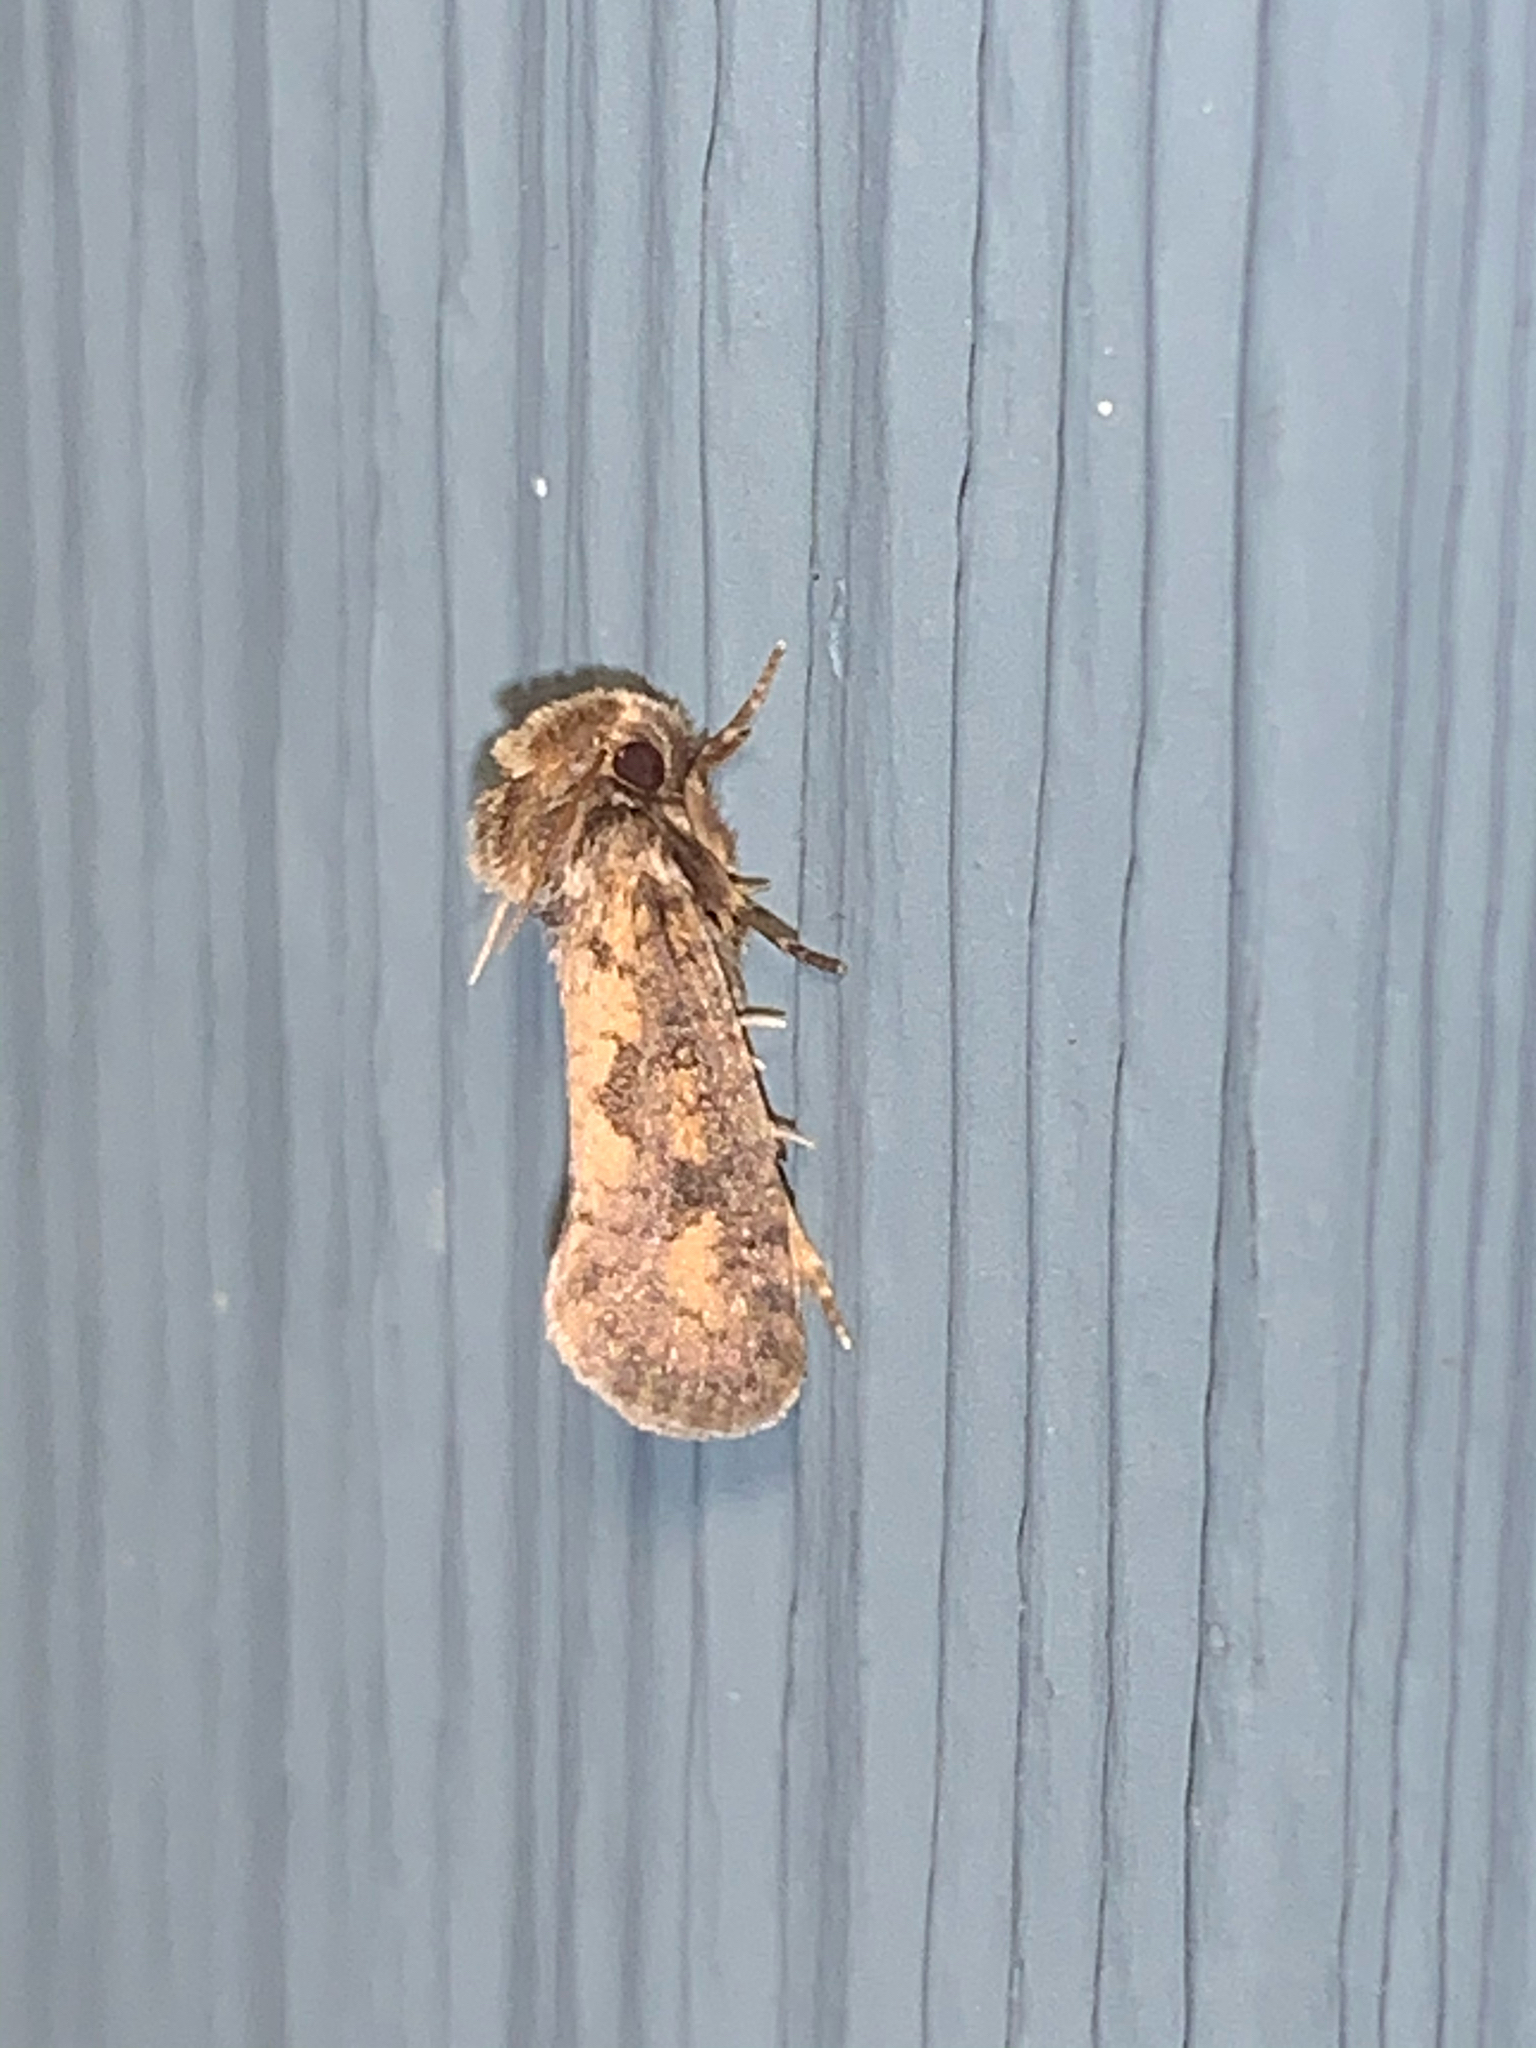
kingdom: Animalia
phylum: Arthropoda
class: Insecta
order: Lepidoptera
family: Tineidae
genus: Acrolophus
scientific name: Acrolophus popeanella
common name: Clemens' grass tubeworm moth
